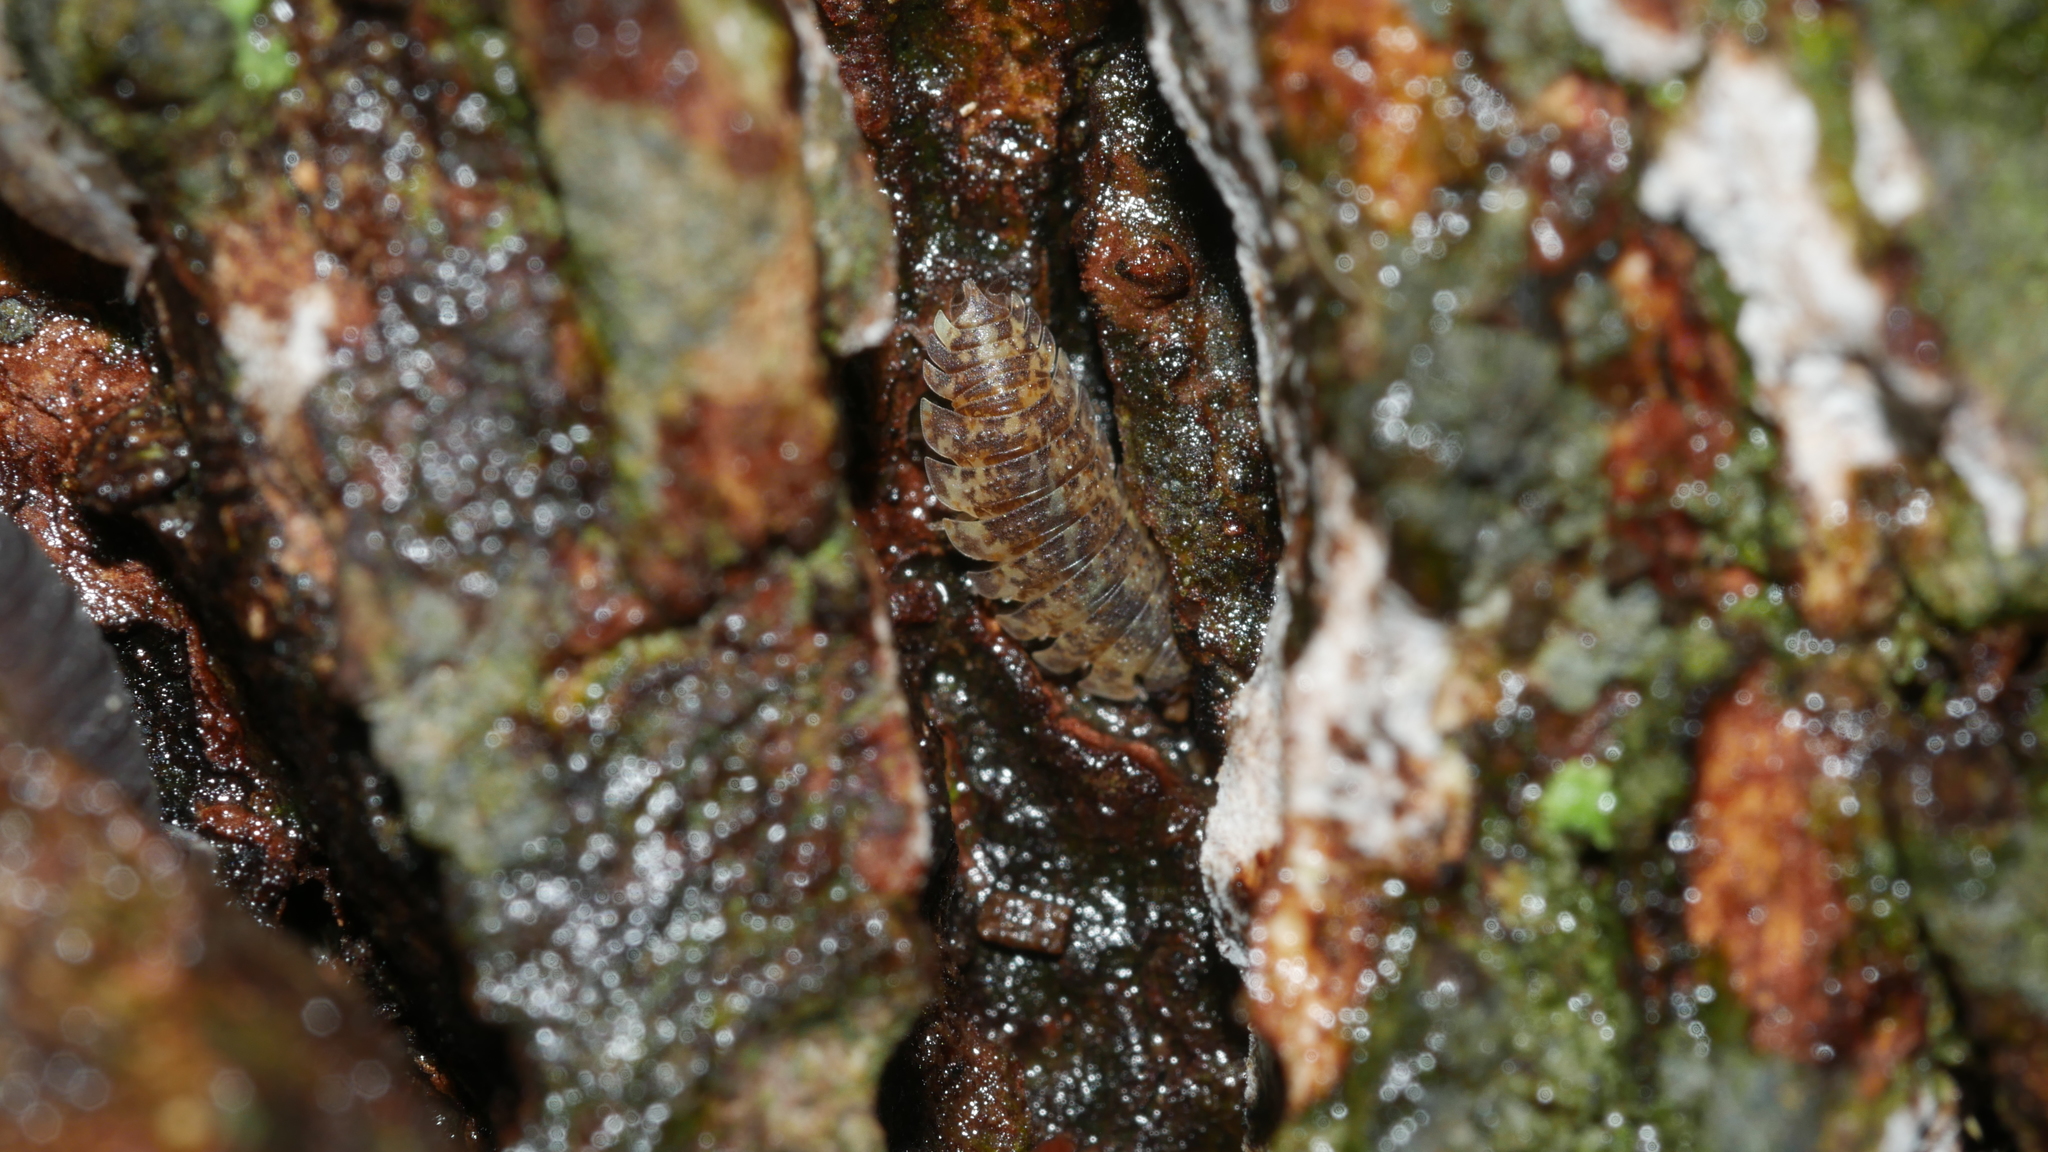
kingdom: Animalia
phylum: Arthropoda
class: Malacostraca
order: Isopoda
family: Porcellionidae
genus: Porcellio
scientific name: Porcellio scaber
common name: Common rough woodlouse
